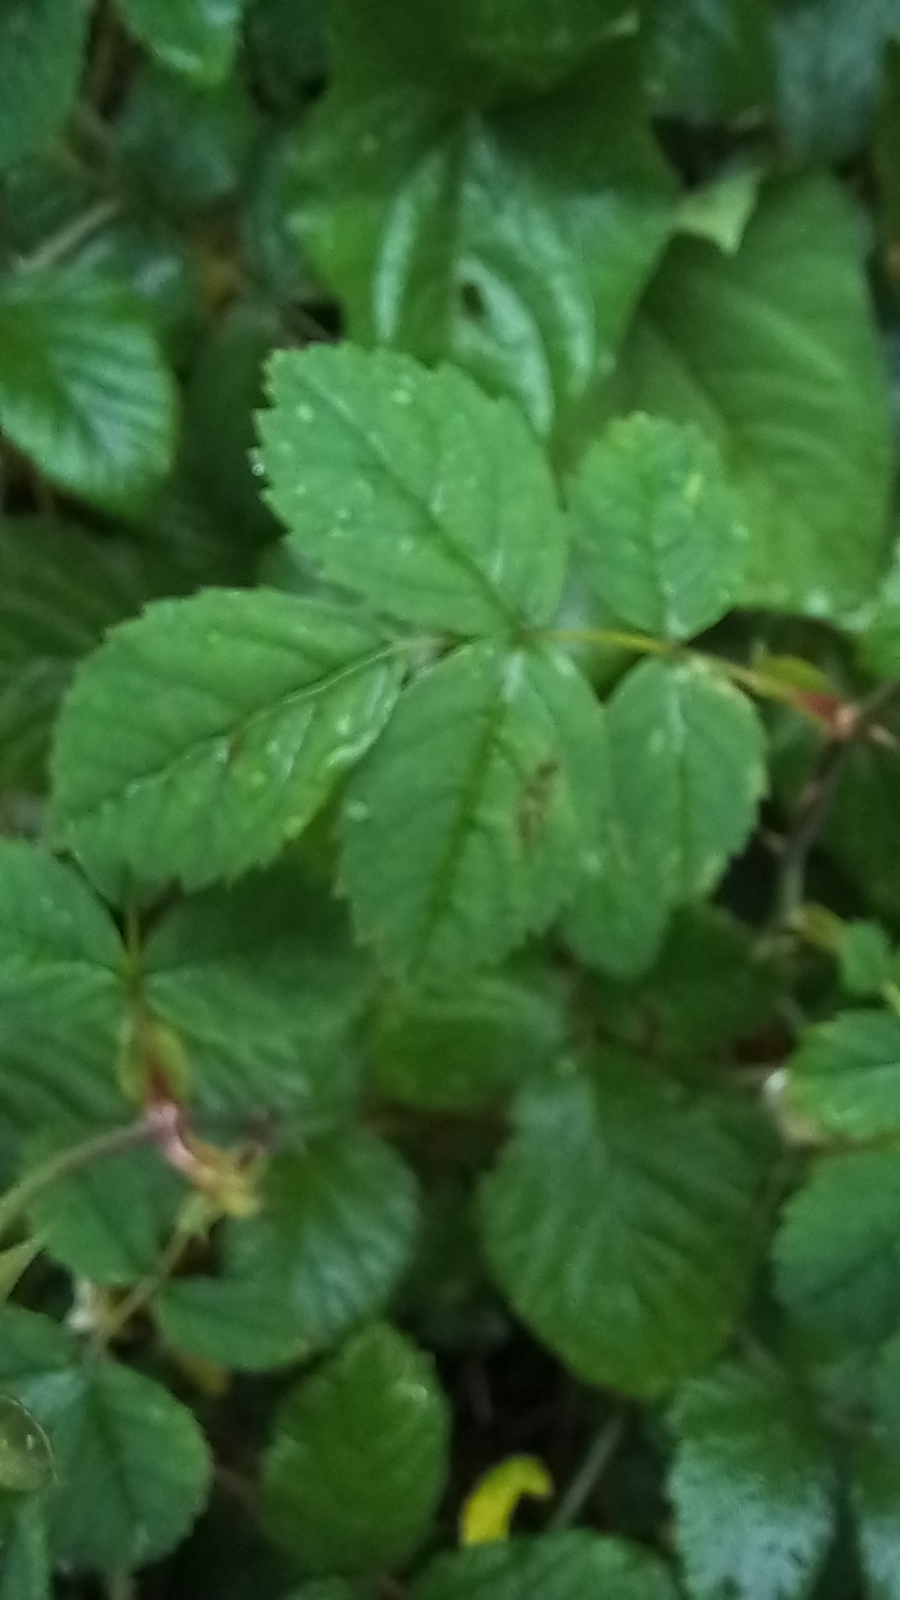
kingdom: Plantae
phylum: Tracheophyta
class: Magnoliopsida
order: Rosales
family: Rosaceae
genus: Rosa
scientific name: Rosa arvensis
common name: Field rose
